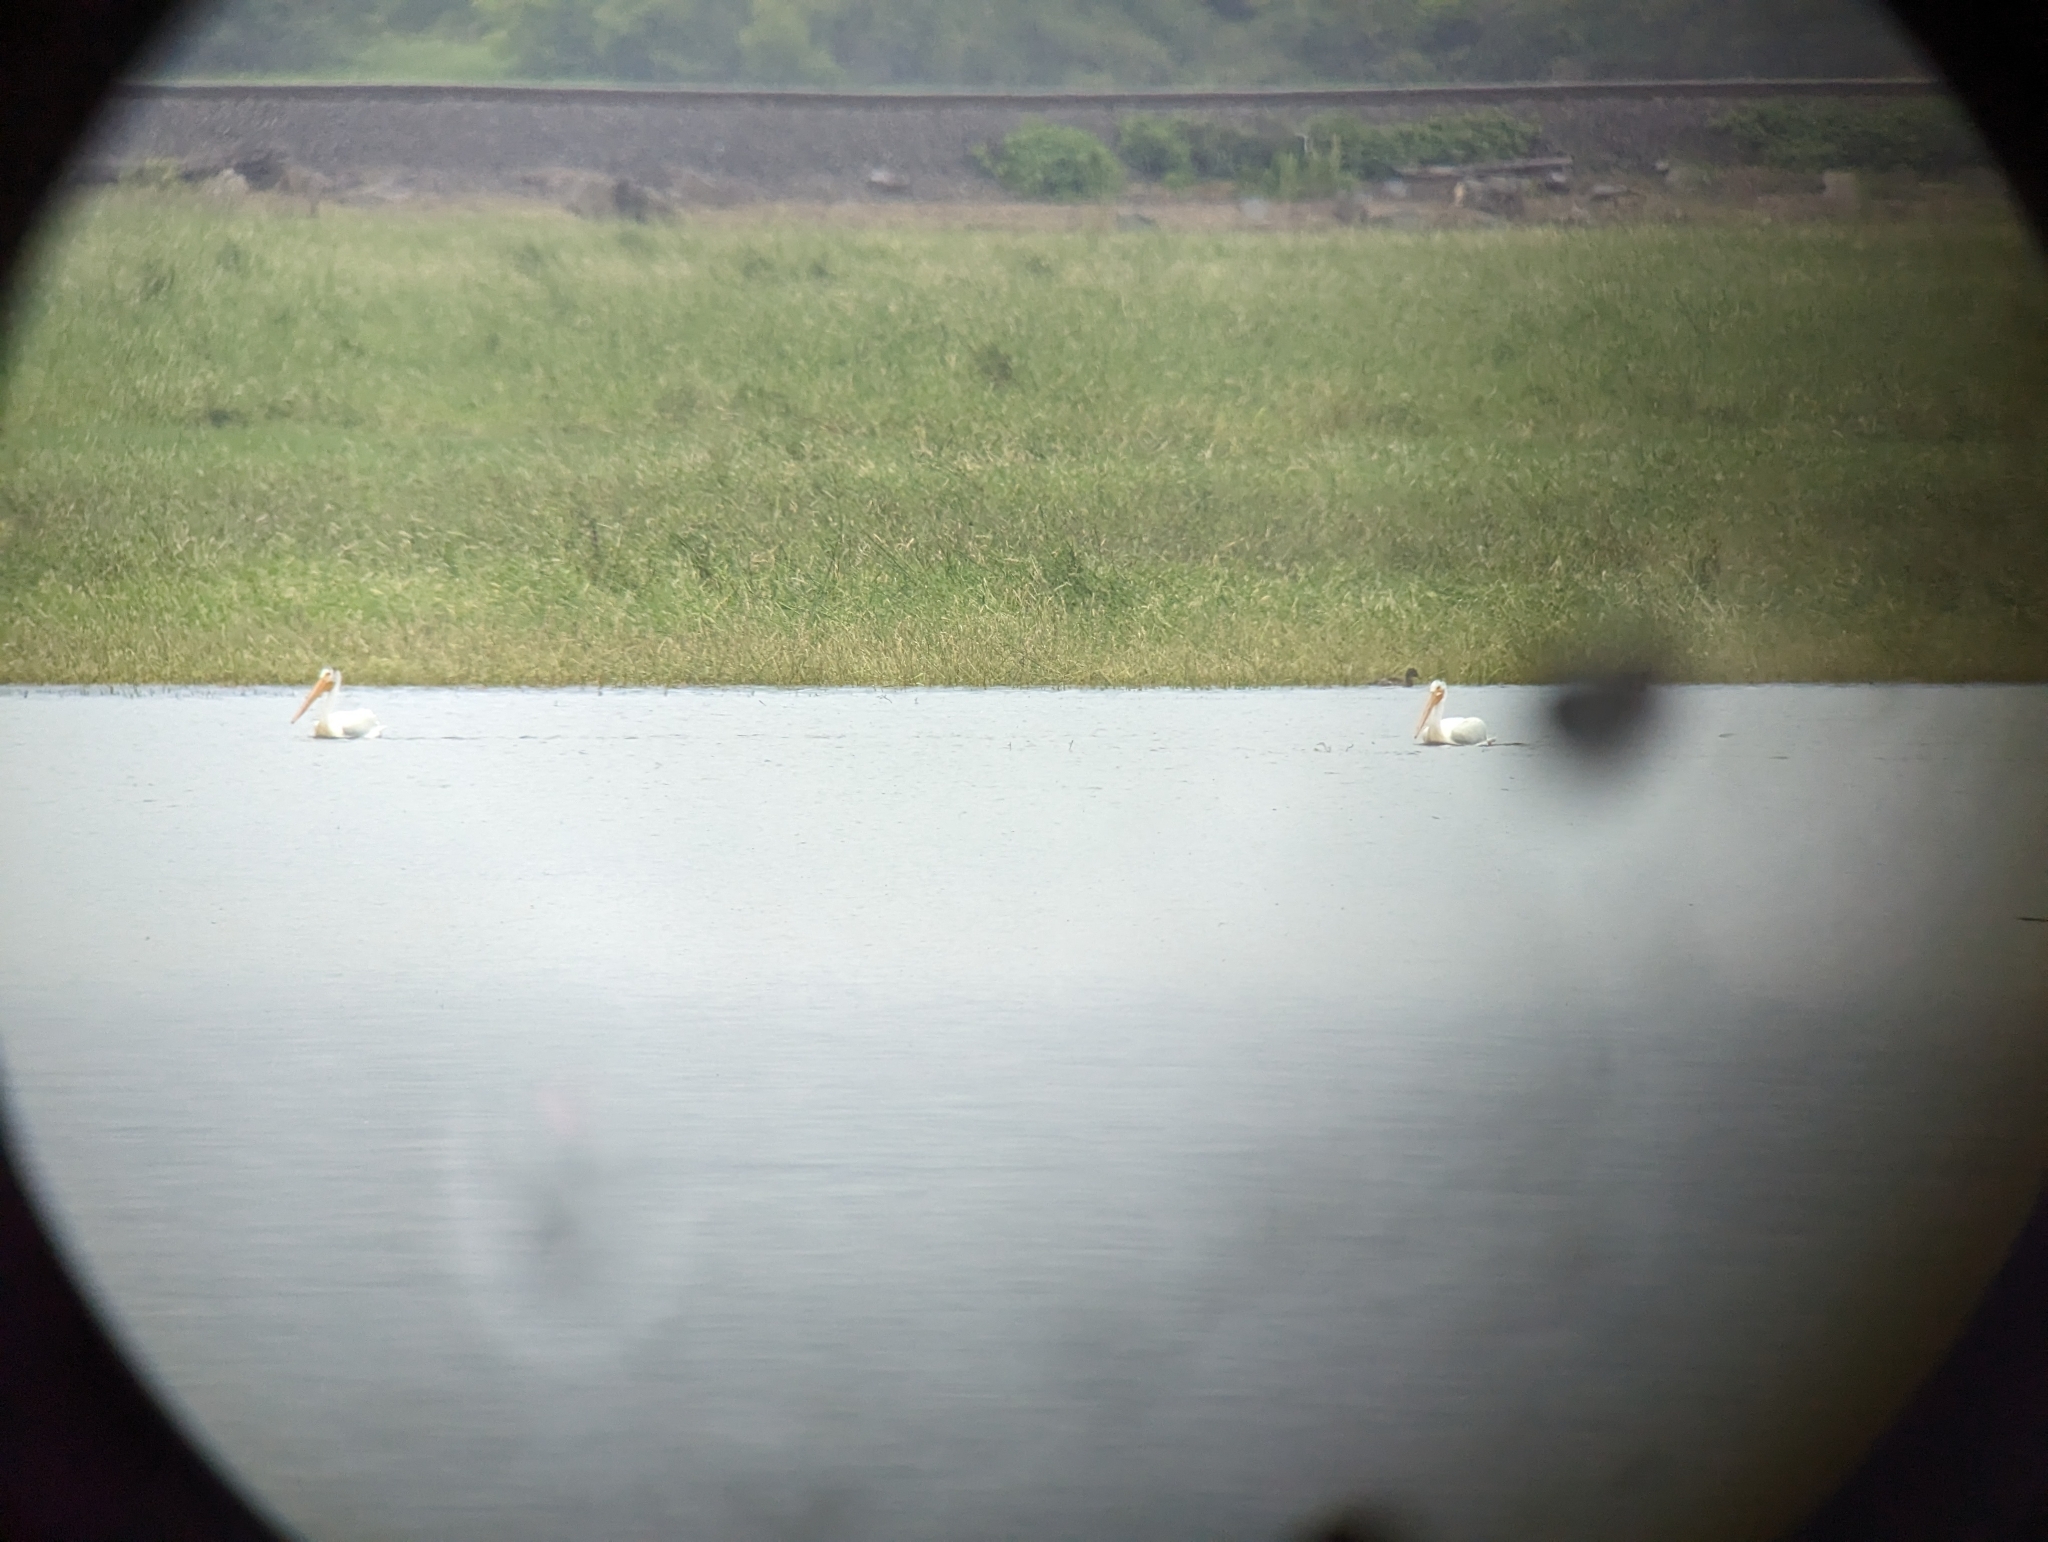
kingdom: Animalia
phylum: Chordata
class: Aves
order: Pelecaniformes
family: Pelecanidae
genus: Pelecanus
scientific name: Pelecanus erythrorhynchos
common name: American white pelican
